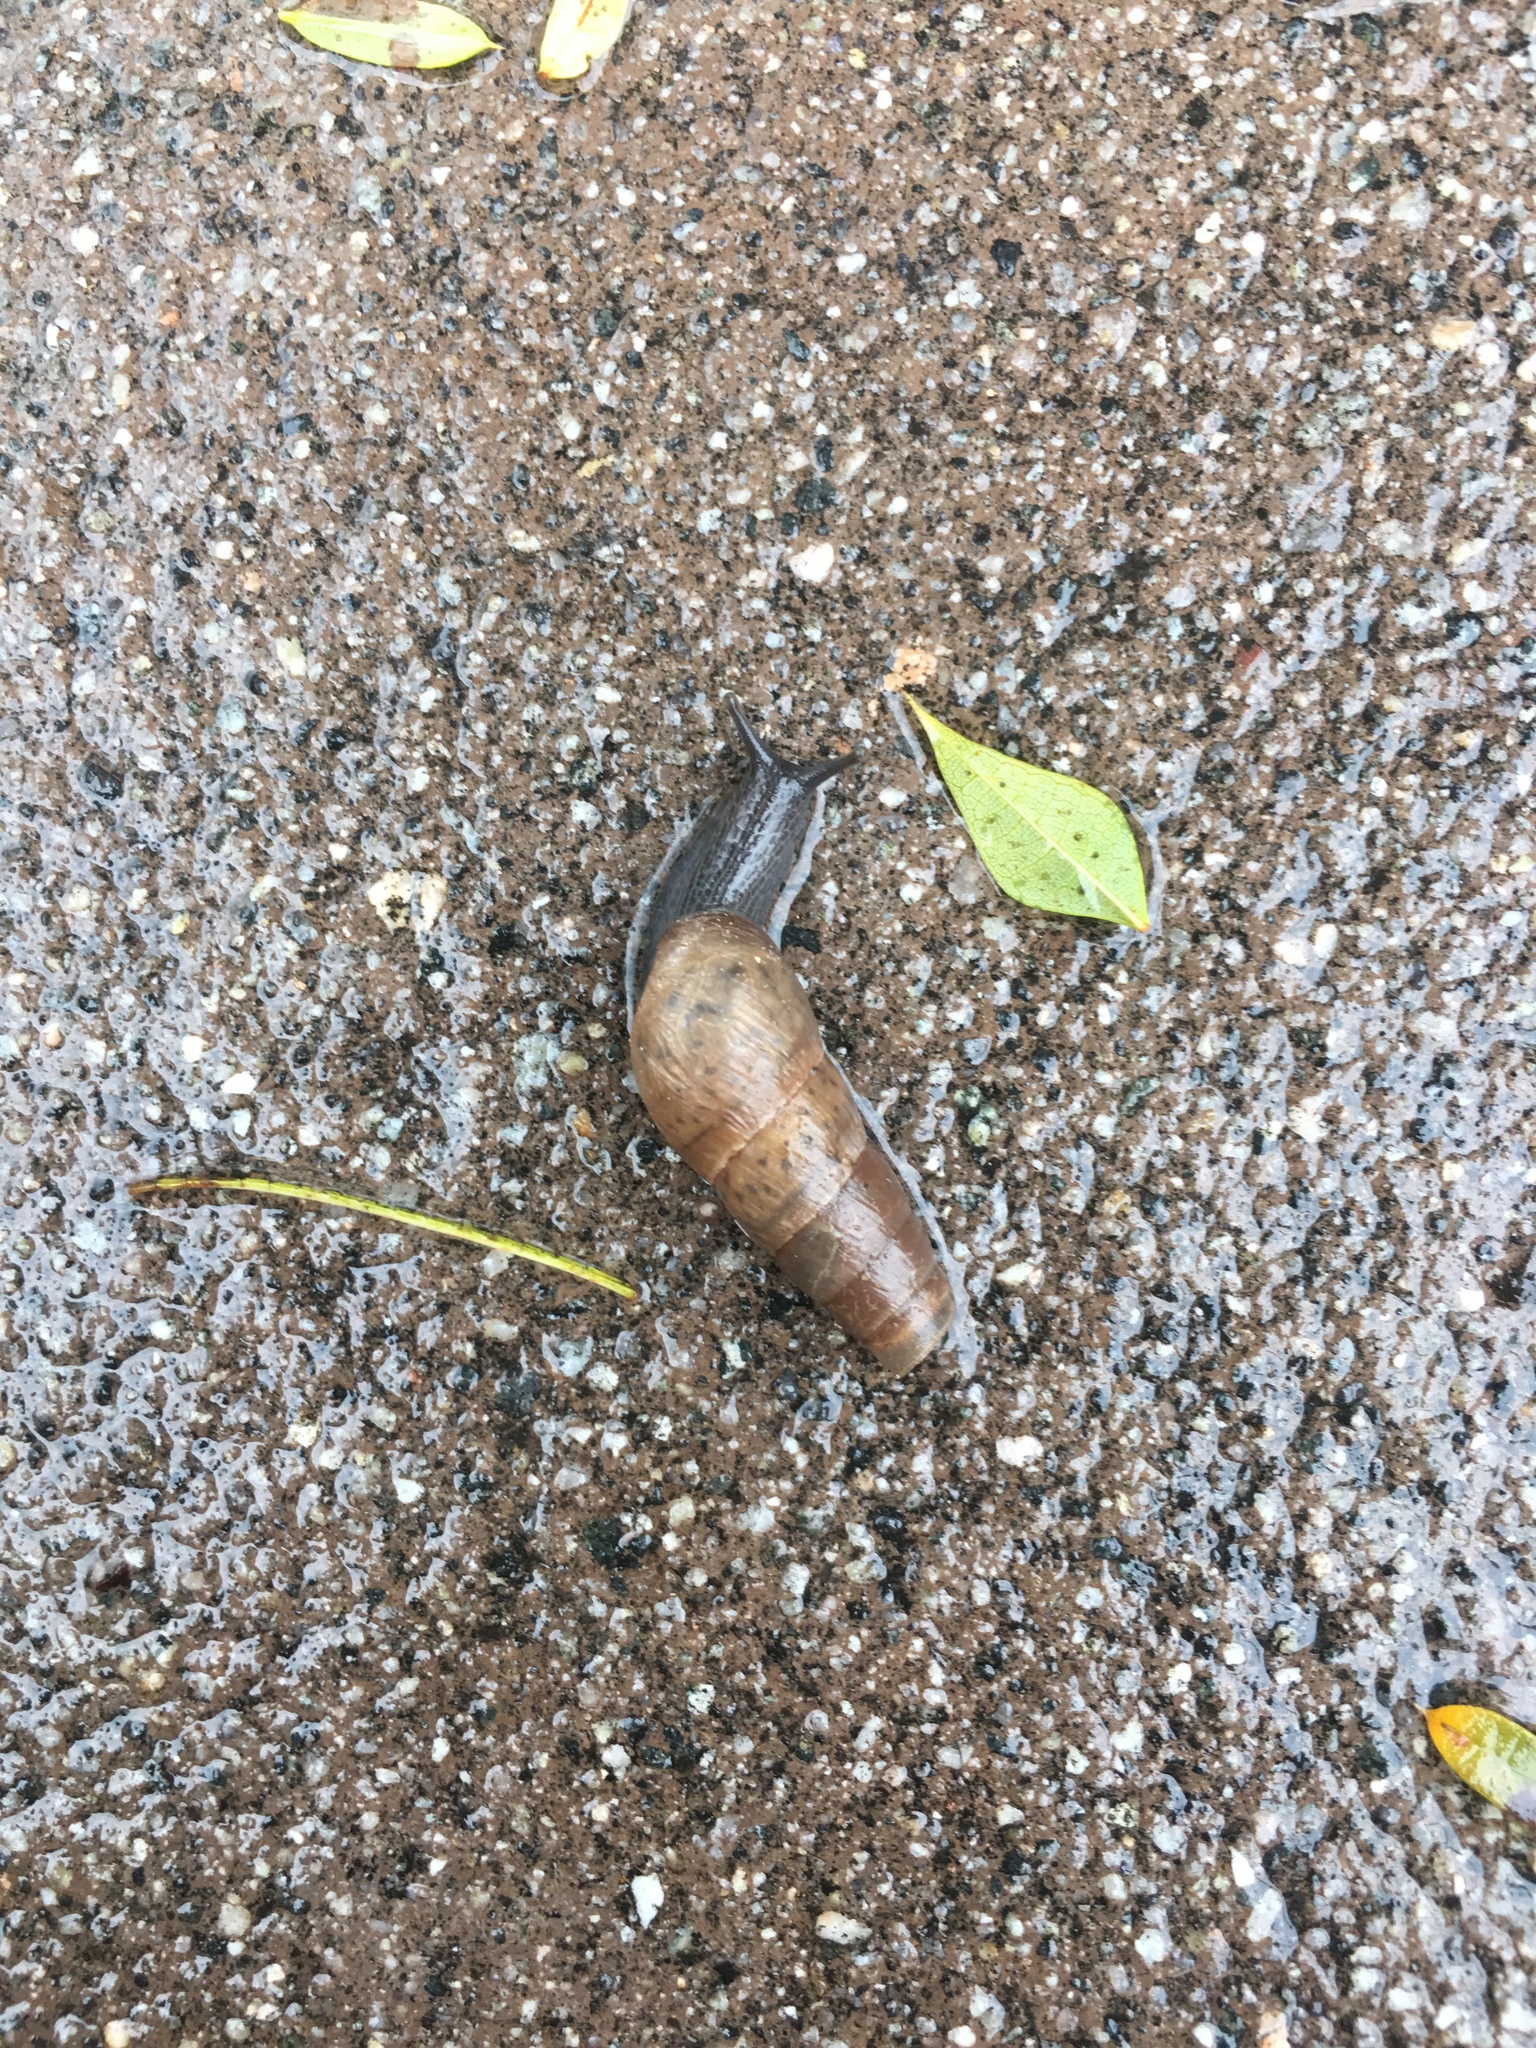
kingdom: Animalia
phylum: Mollusca
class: Gastropoda
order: Stylommatophora
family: Achatinidae
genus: Rumina
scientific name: Rumina decollata
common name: Decollate snail
